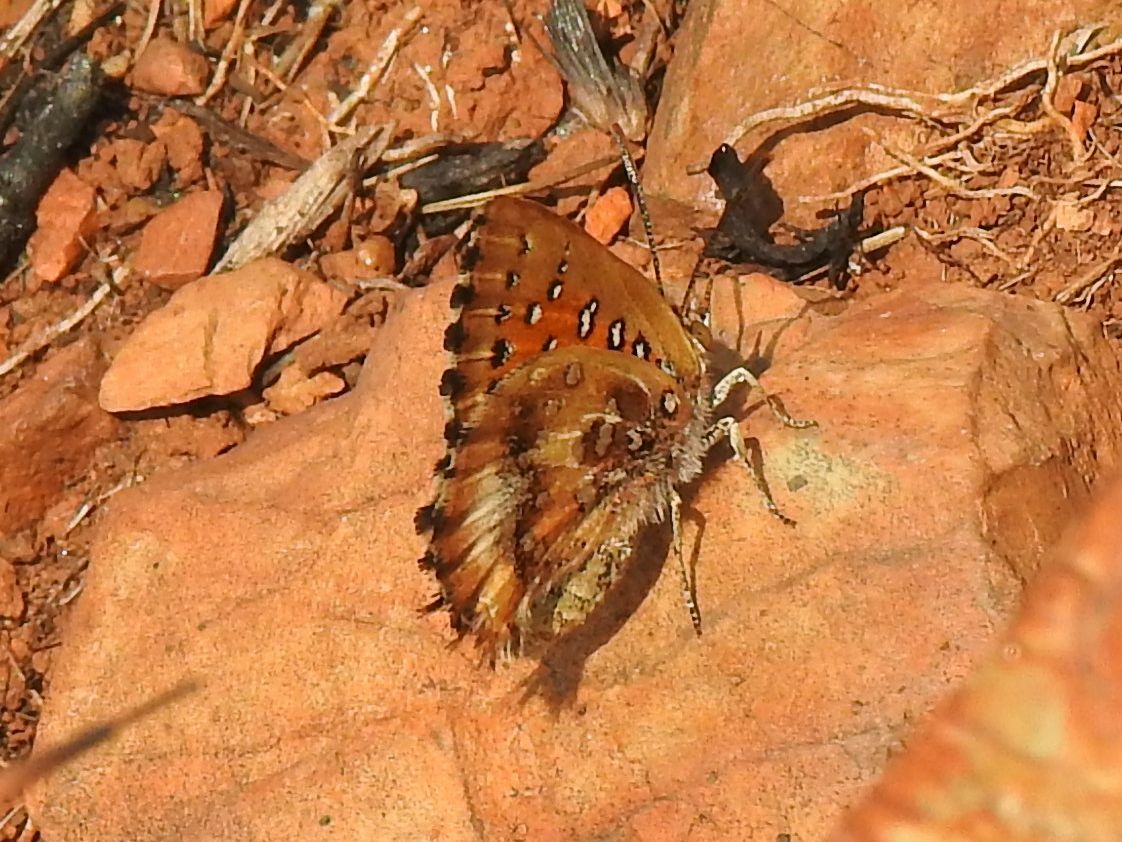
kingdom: Animalia
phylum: Arthropoda
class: Insecta
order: Lepidoptera
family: Lycaenidae
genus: Aloeides
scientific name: Aloeides molomo
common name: Mottled russet
